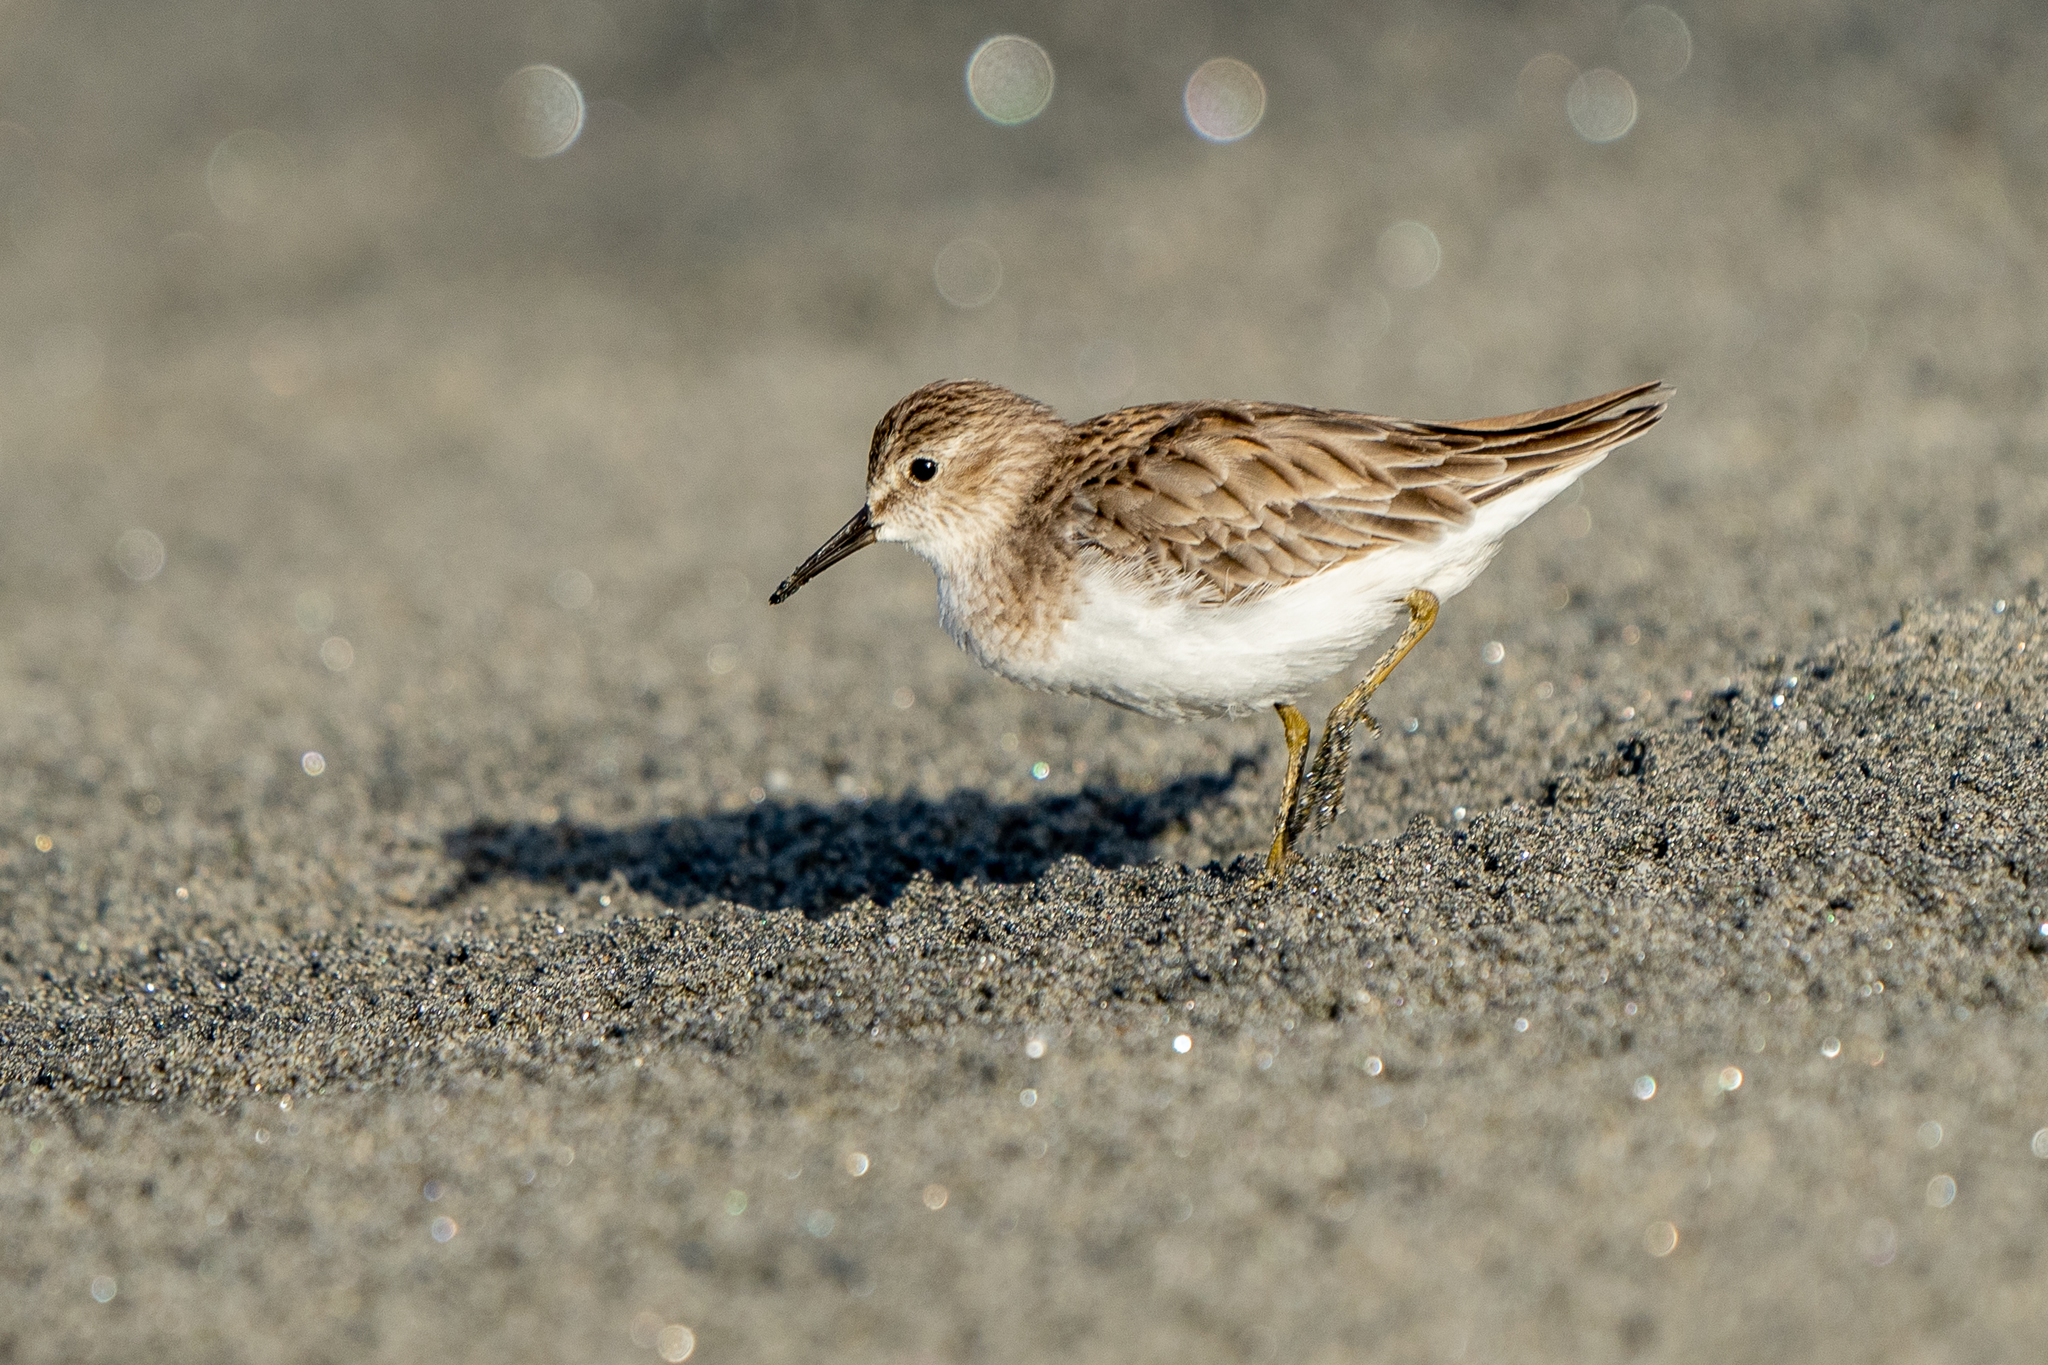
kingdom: Animalia
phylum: Chordata
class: Aves
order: Charadriiformes
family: Scolopacidae
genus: Calidris
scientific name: Calidris minutilla
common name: Least sandpiper
